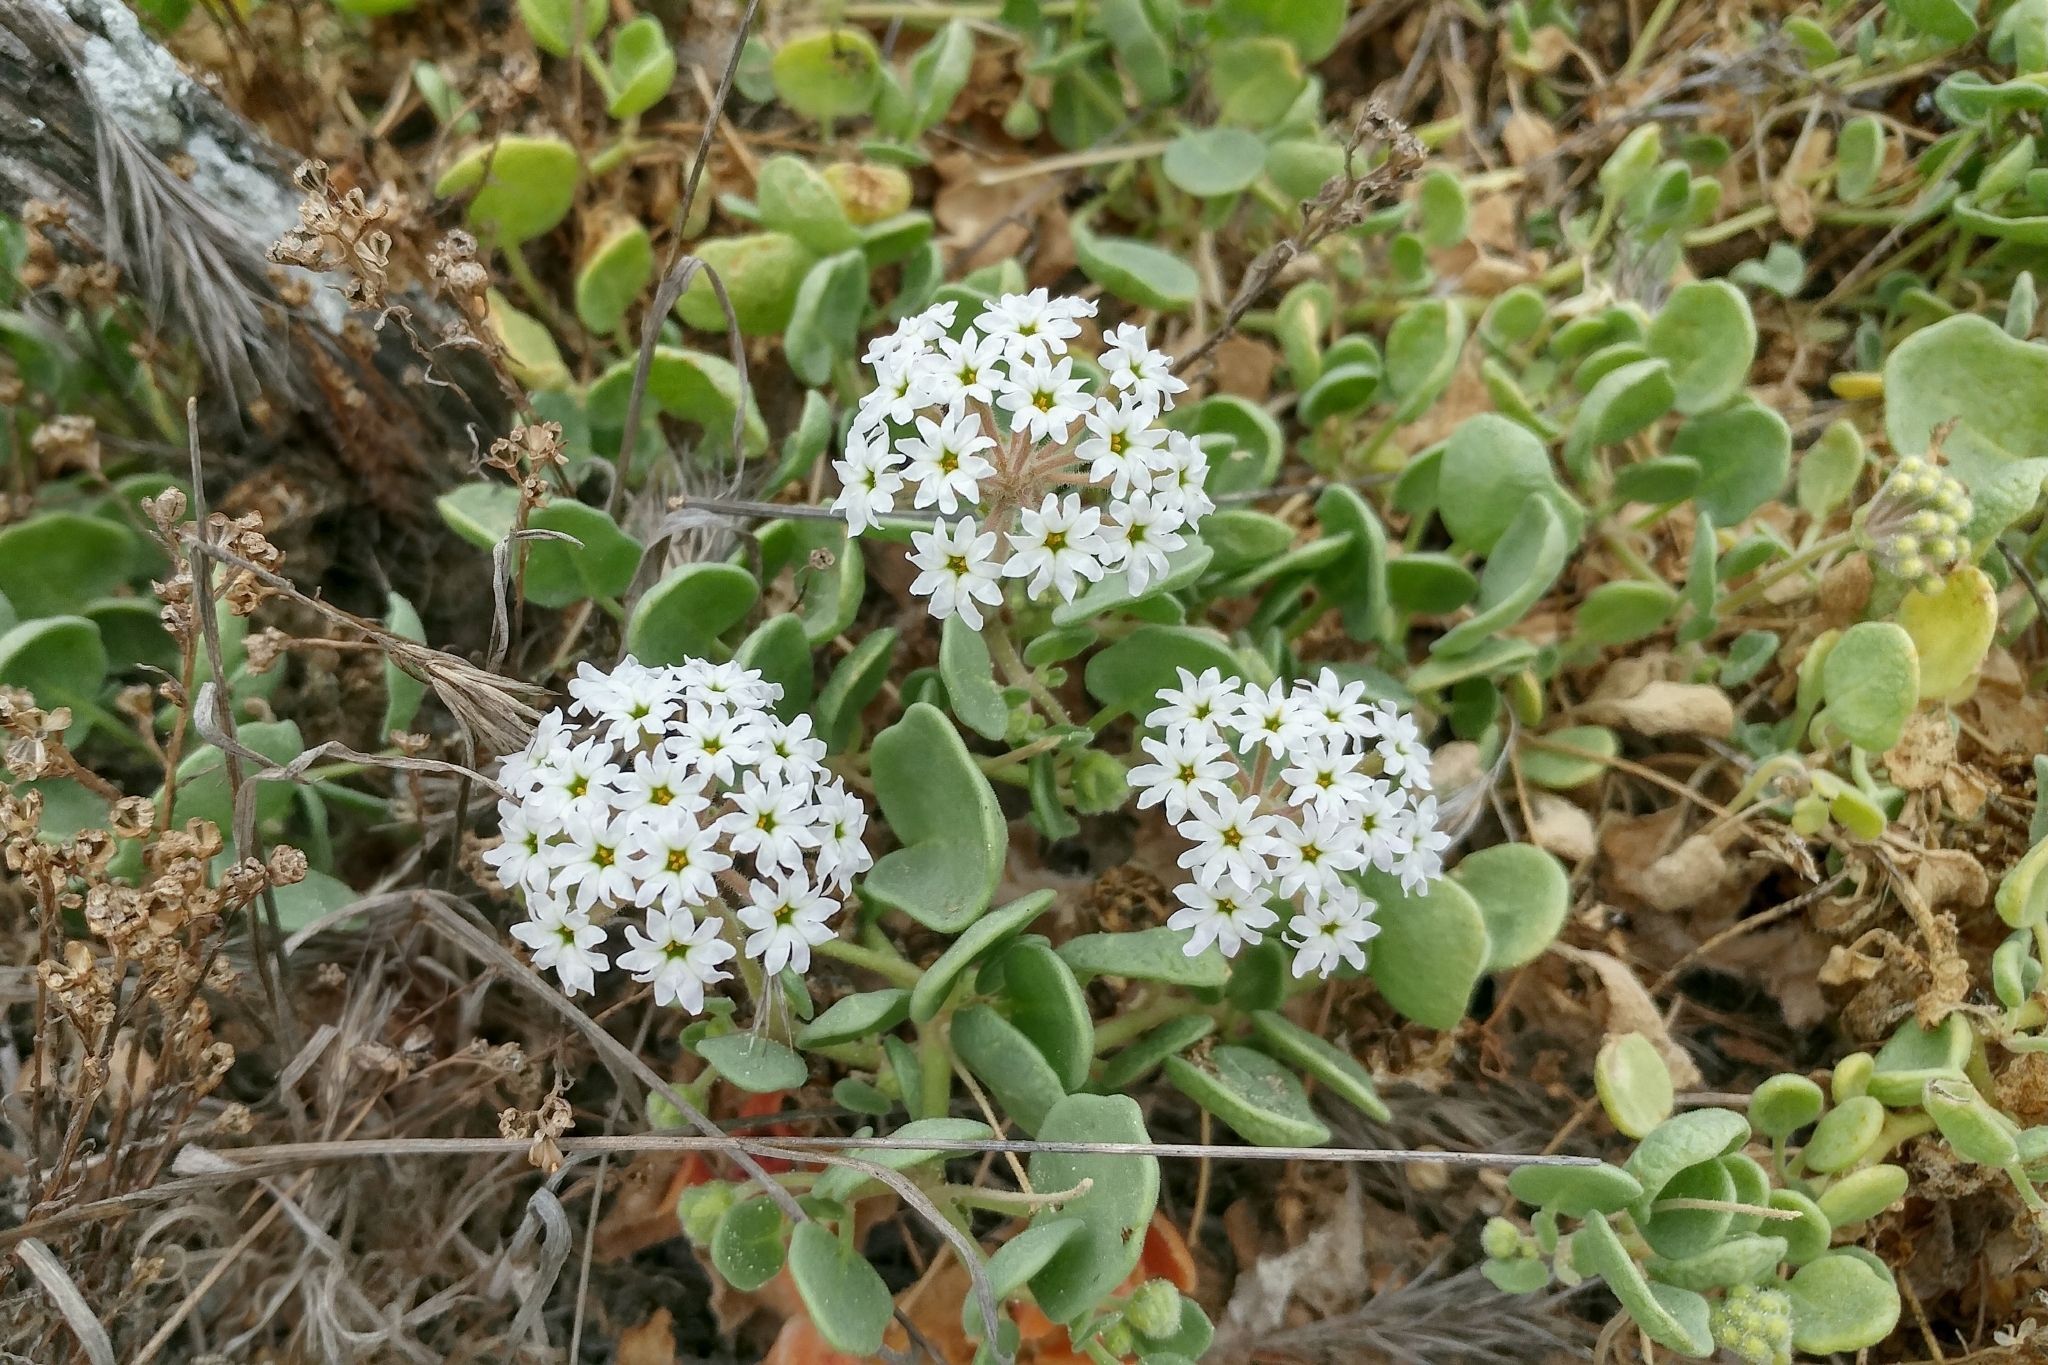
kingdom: Plantae
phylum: Tracheophyta
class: Magnoliopsida
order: Caryophyllales
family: Nyctaginaceae
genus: Abronia
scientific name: Abronia
